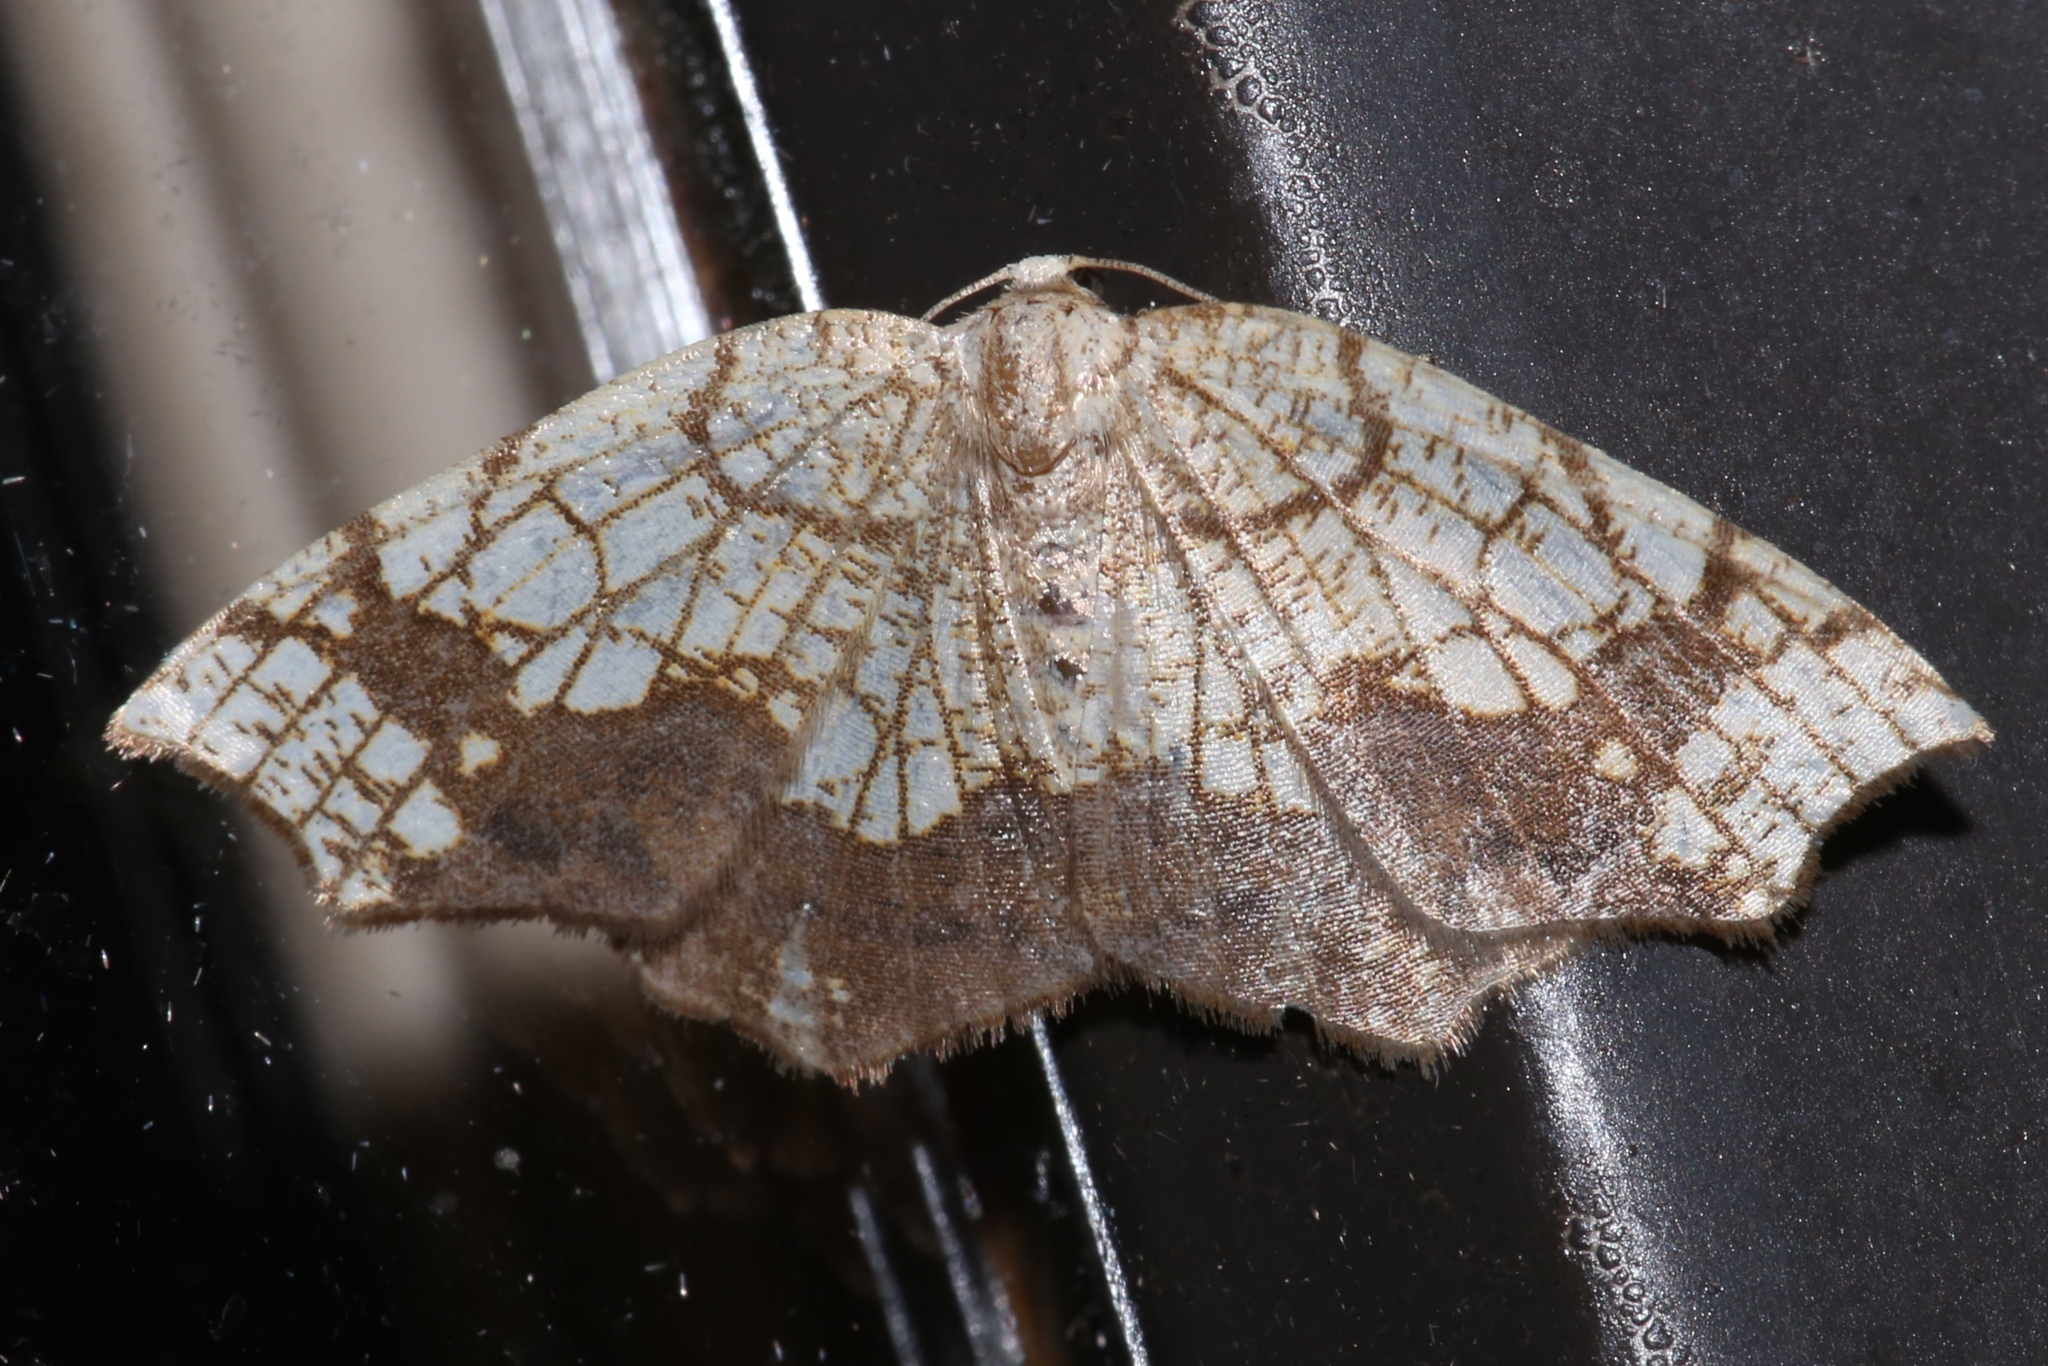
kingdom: Animalia
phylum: Arthropoda
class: Insecta
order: Lepidoptera
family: Geometridae
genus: Nematocampa
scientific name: Nematocampa resistaria
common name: Horned spanworm moth
